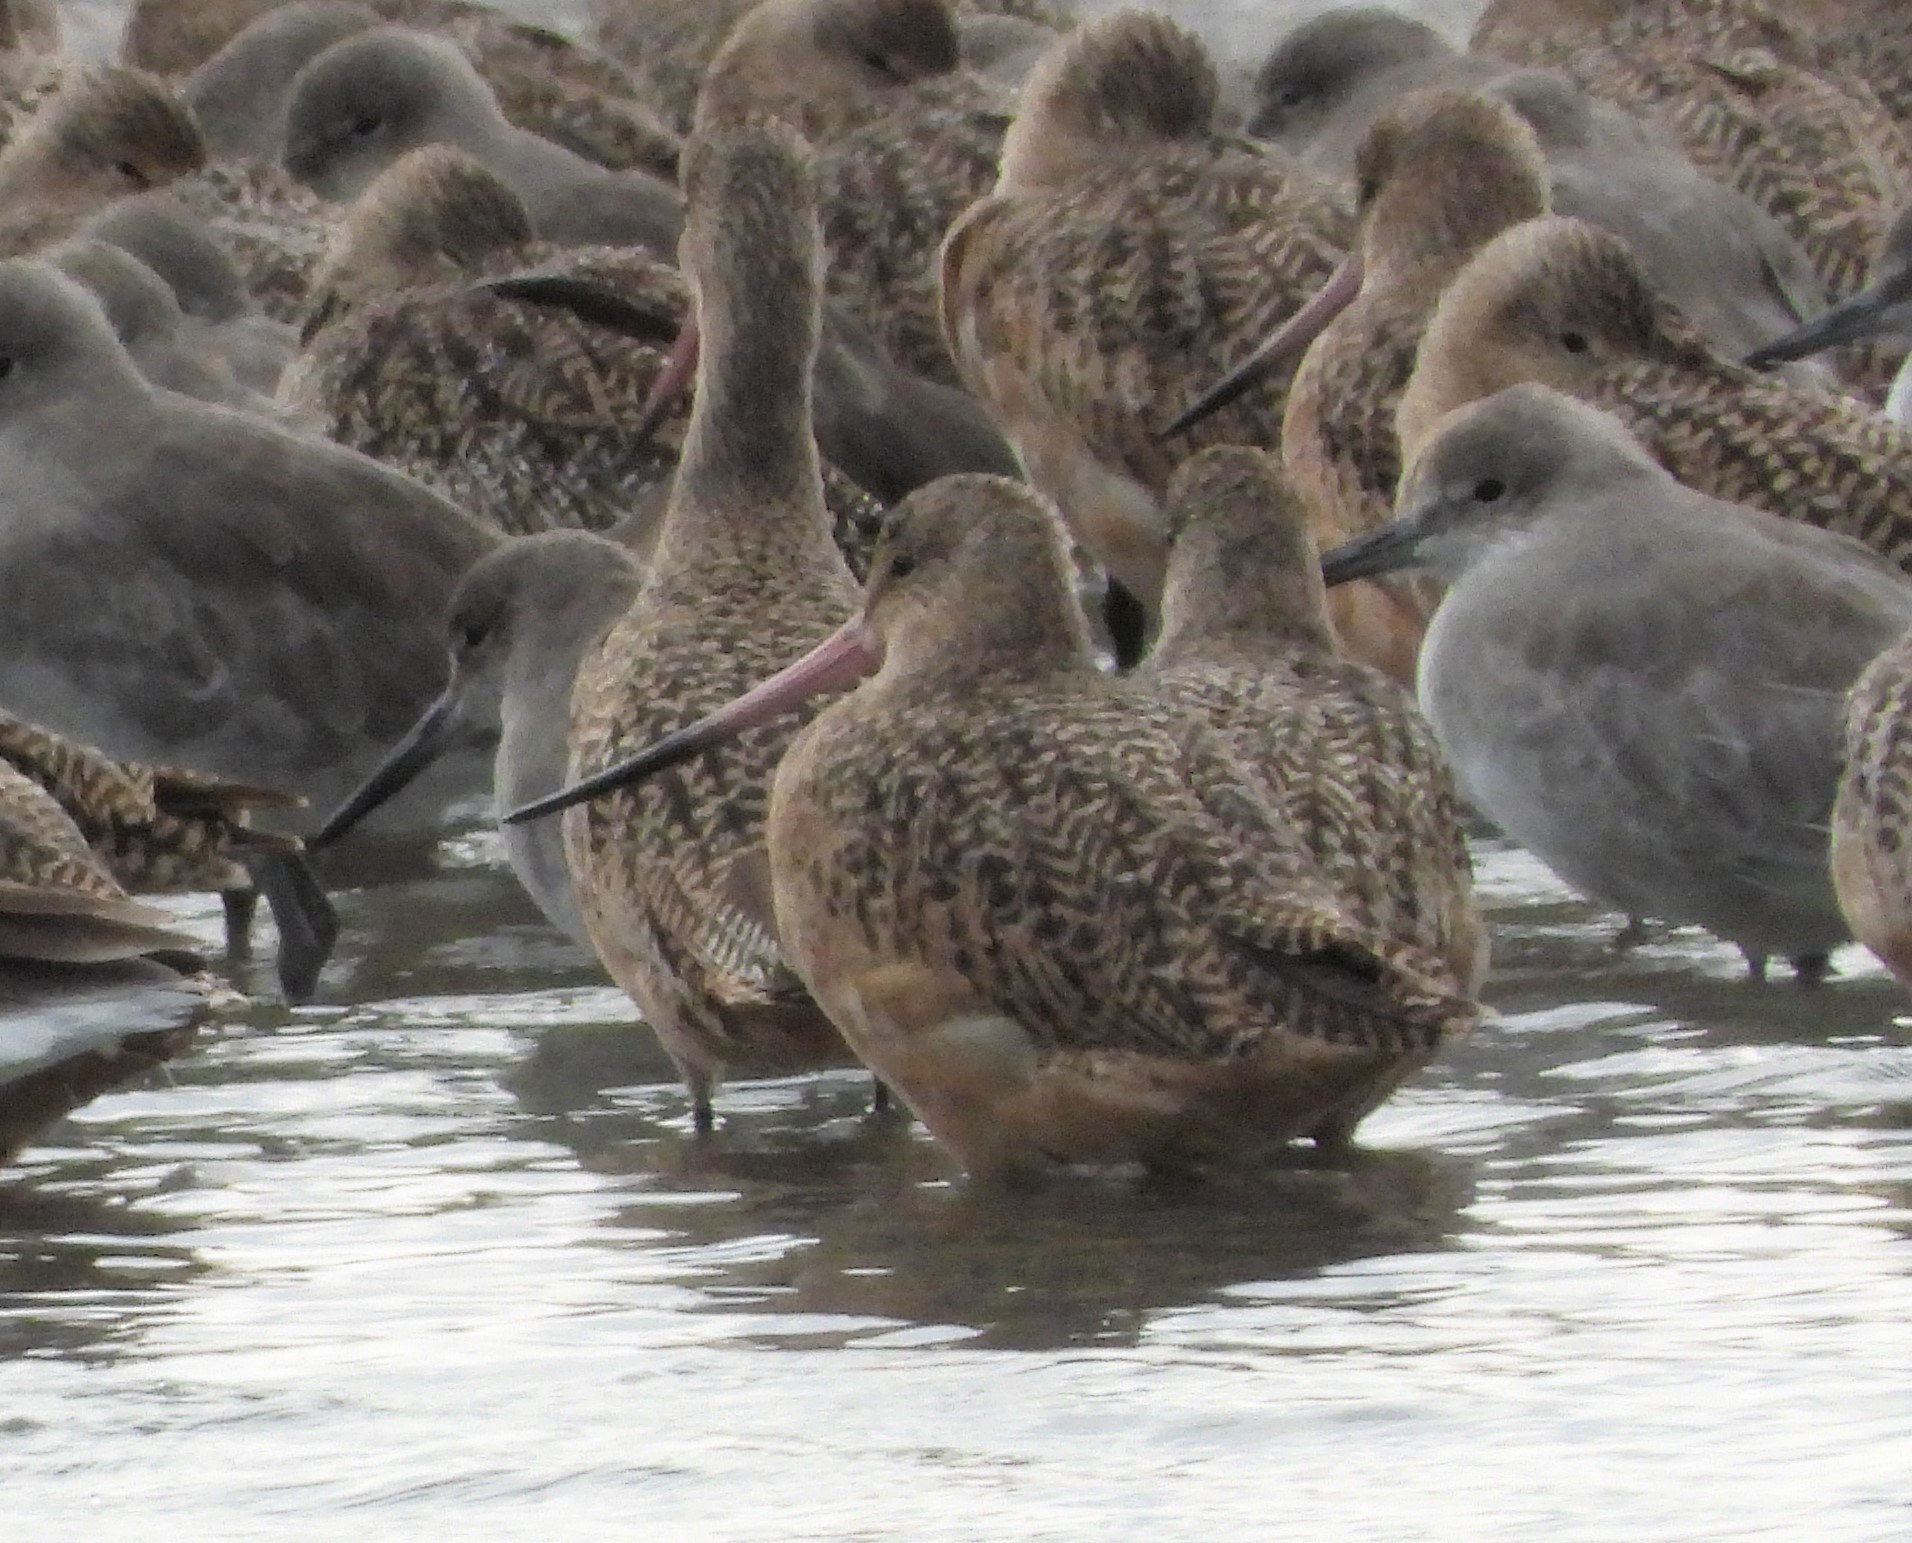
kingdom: Animalia
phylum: Chordata
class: Aves
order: Charadriiformes
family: Scolopacidae
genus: Limosa
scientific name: Limosa fedoa
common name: Marbled godwit
